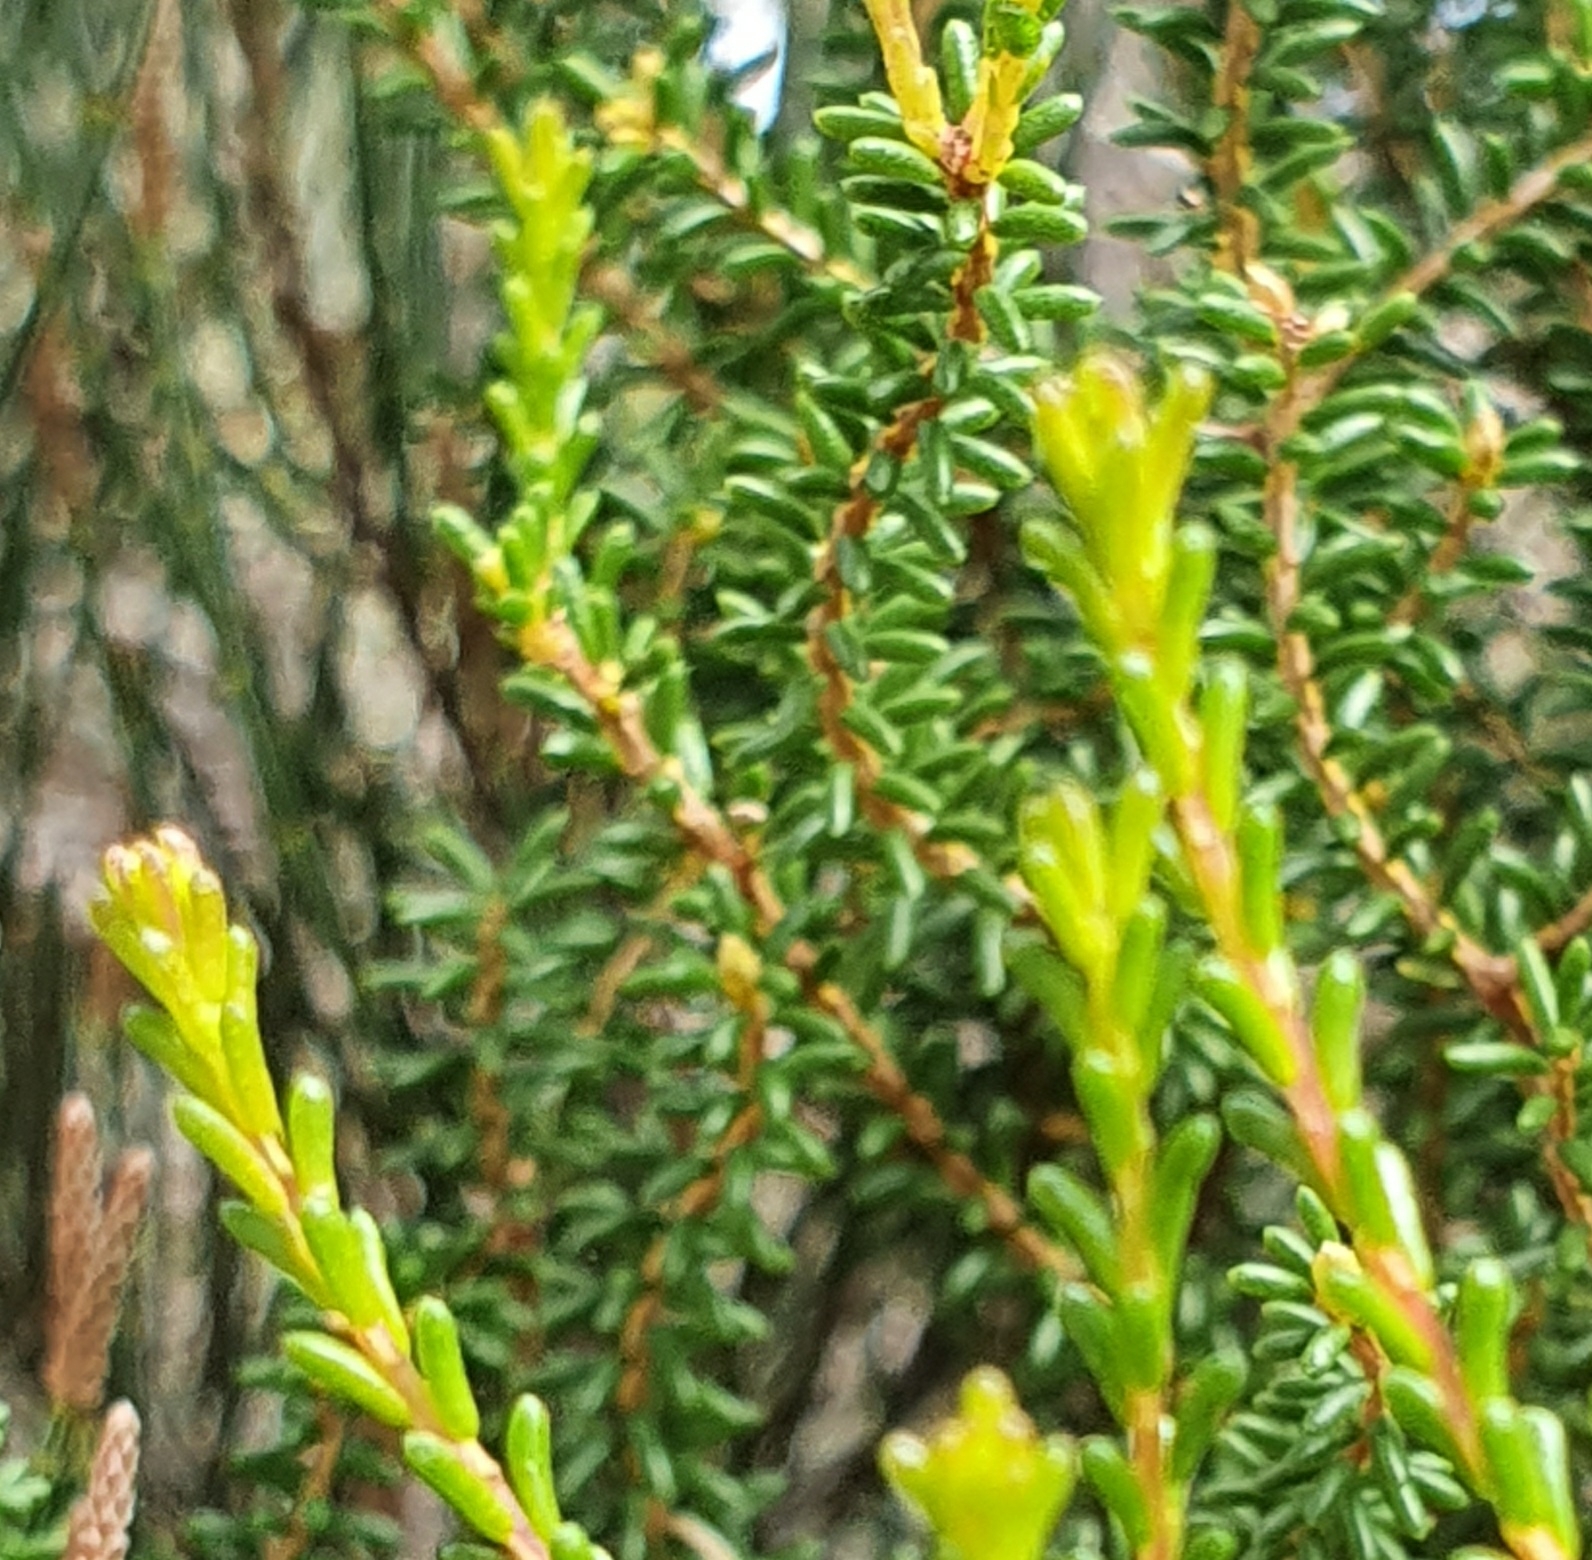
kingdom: Plantae
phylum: Tracheophyta
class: Magnoliopsida
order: Myrtales
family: Myrtaceae
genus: Calytrix
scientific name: Calytrix tetragona
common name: Common fringe myrtle
